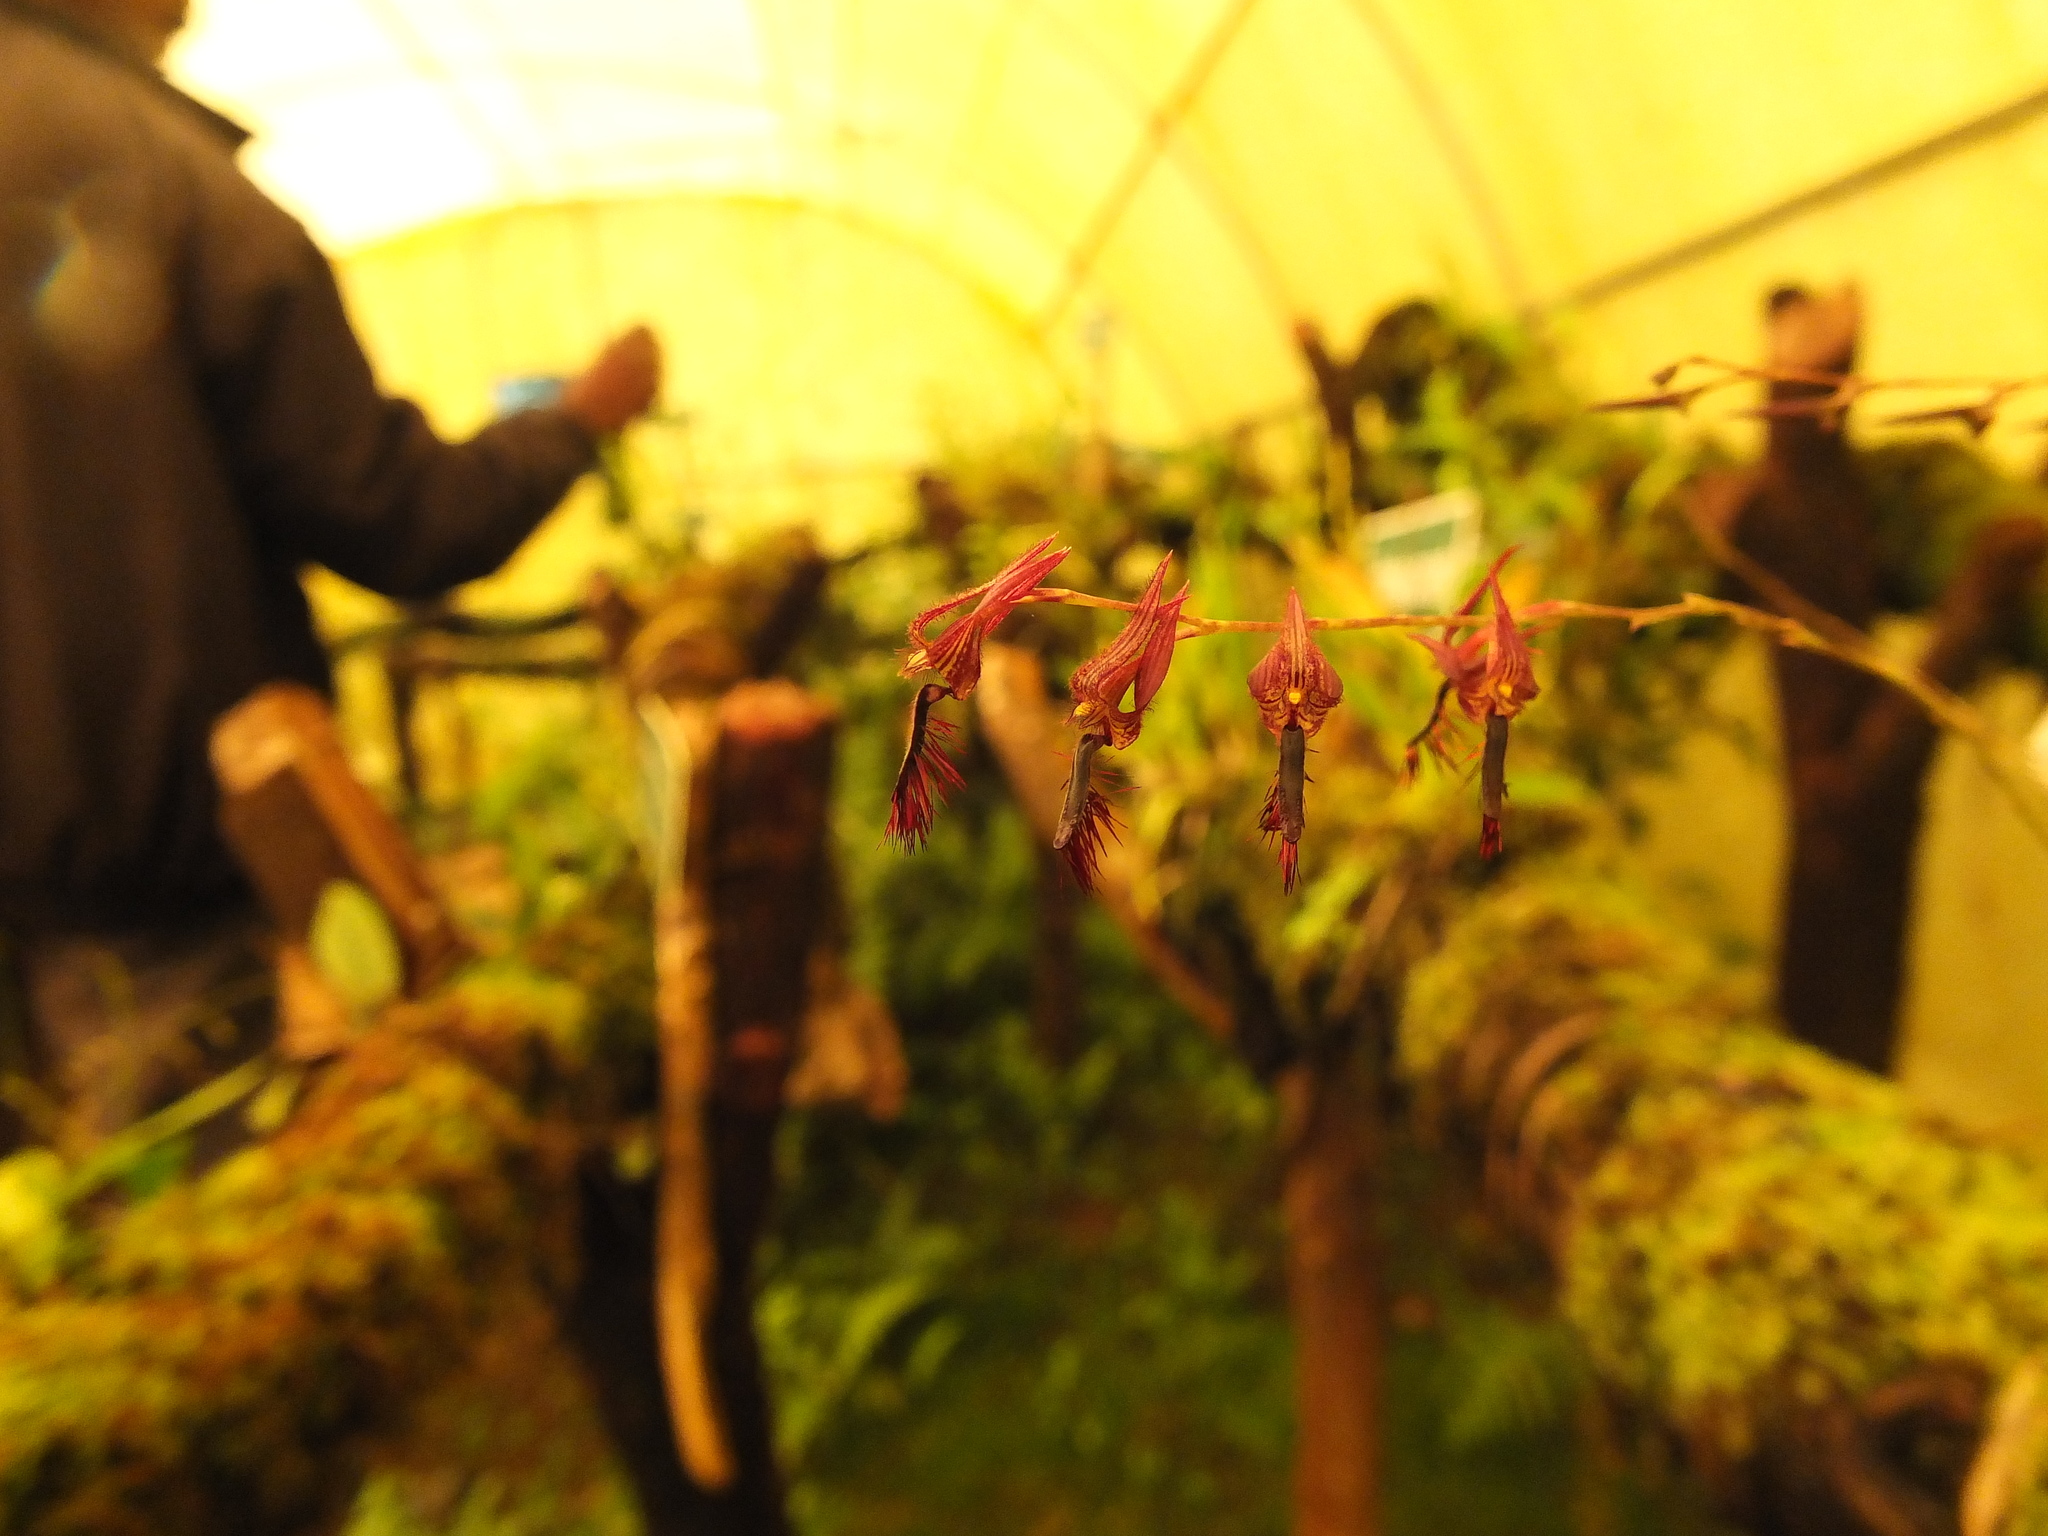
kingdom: Plantae
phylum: Tracheophyta
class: Liliopsida
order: Asparagales
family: Orchidaceae
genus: Bulbophyllum
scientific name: Bulbophyllum tremulum
